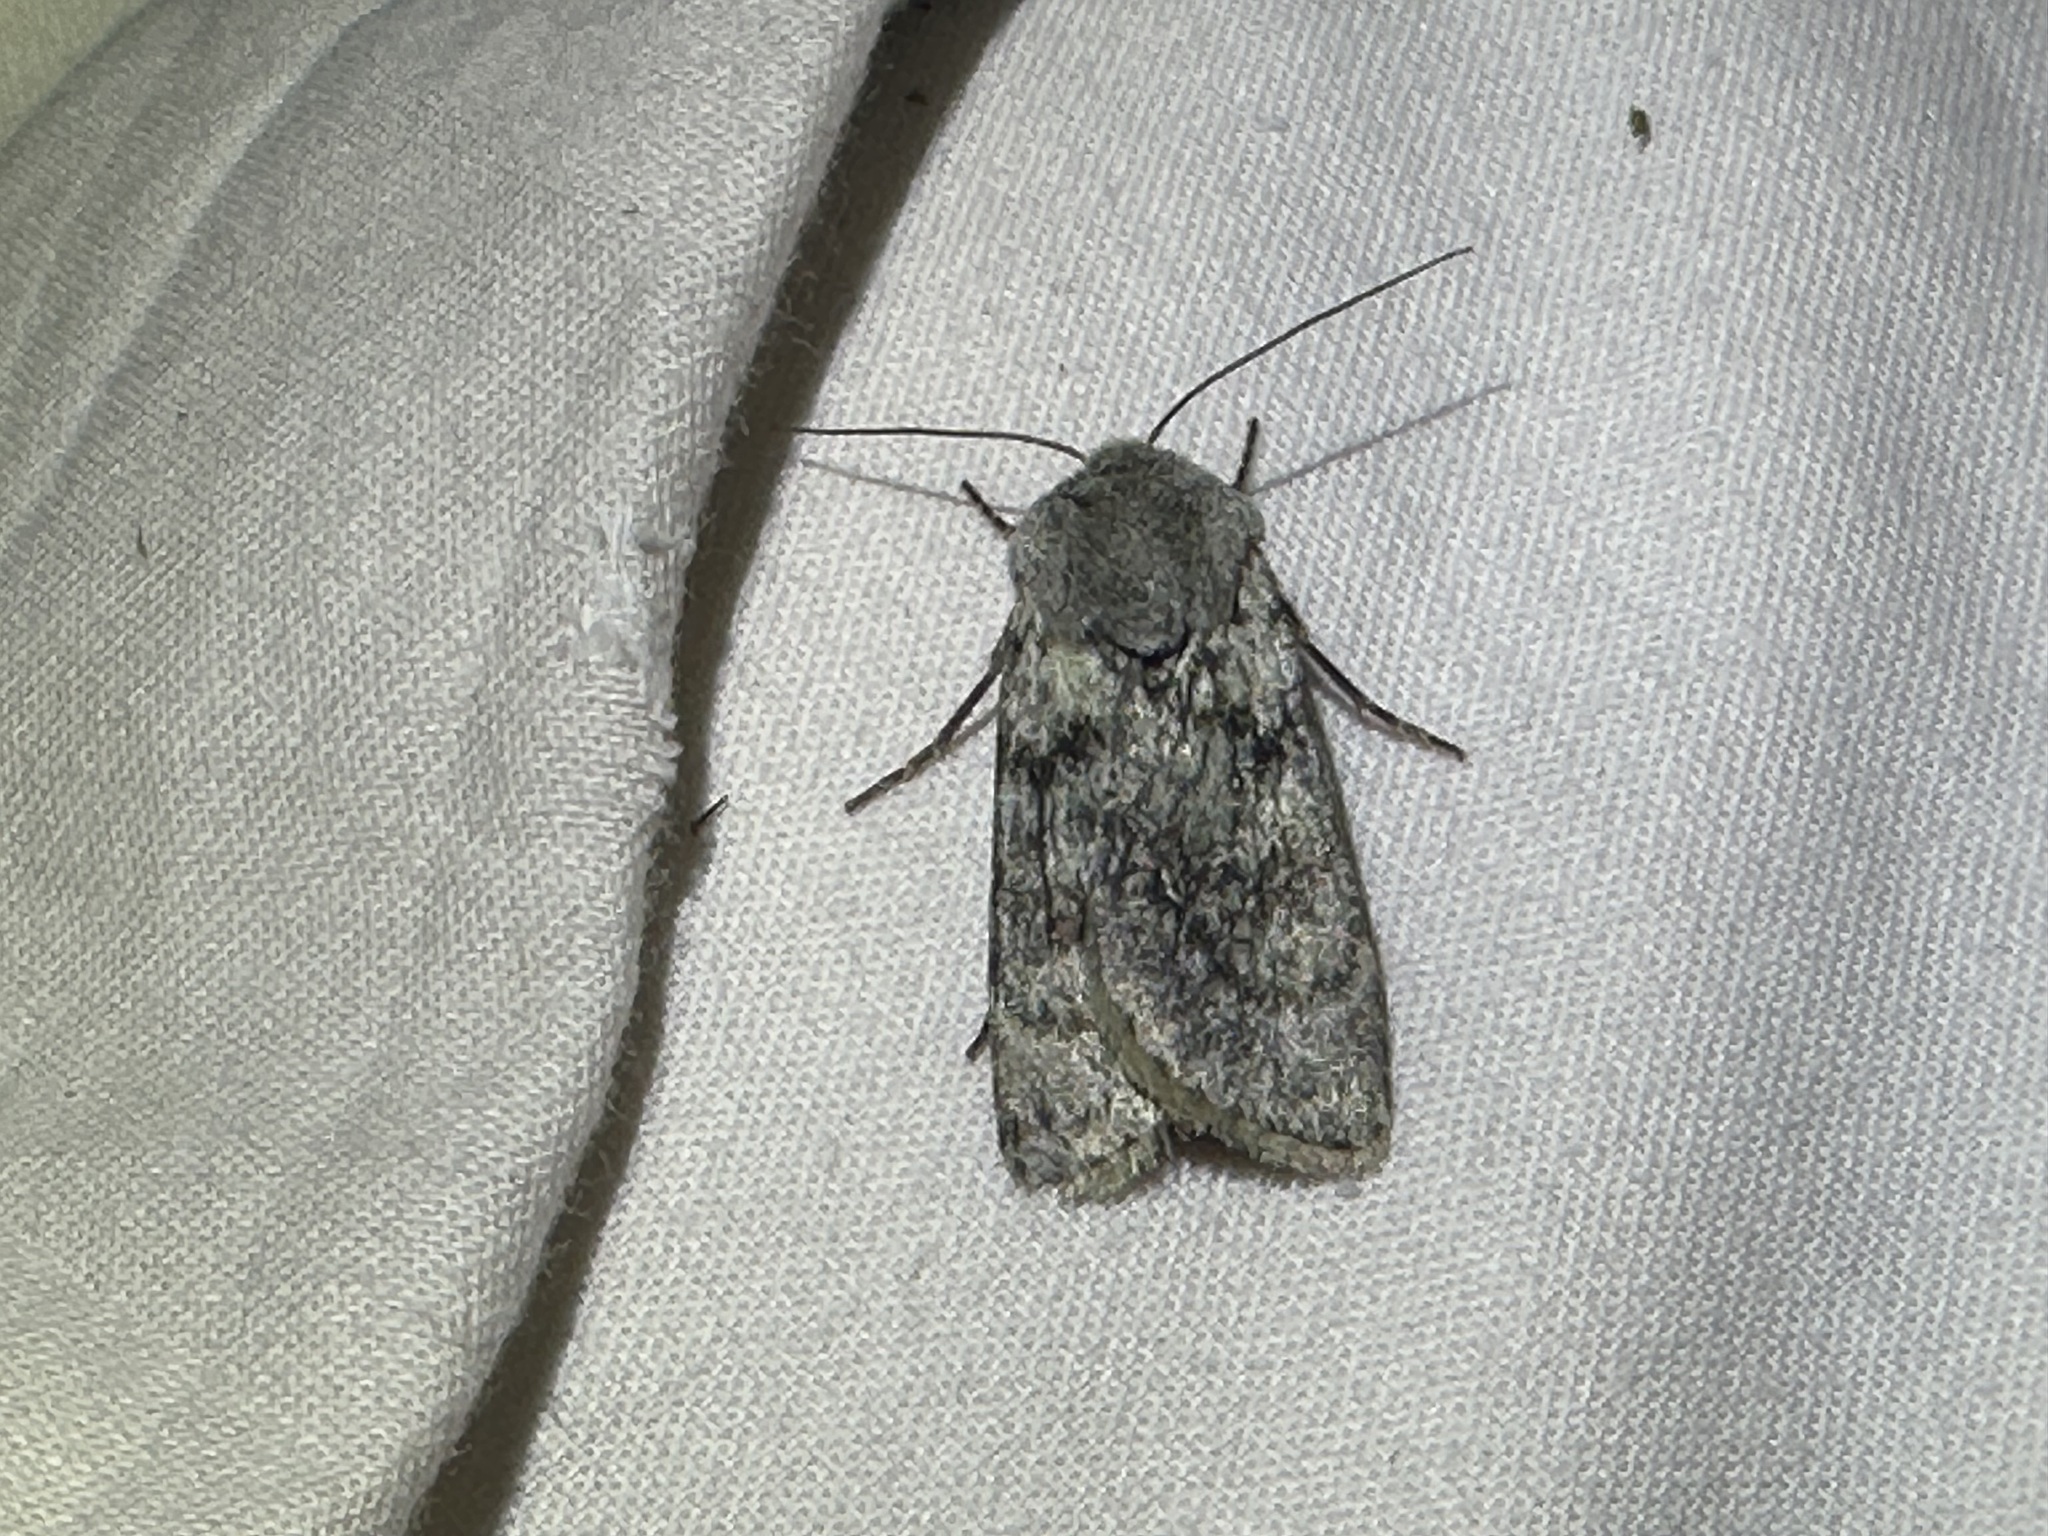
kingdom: Animalia
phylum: Arthropoda
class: Insecta
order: Lepidoptera
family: Noctuidae
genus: Agrotis
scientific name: Agrotis simplonia
